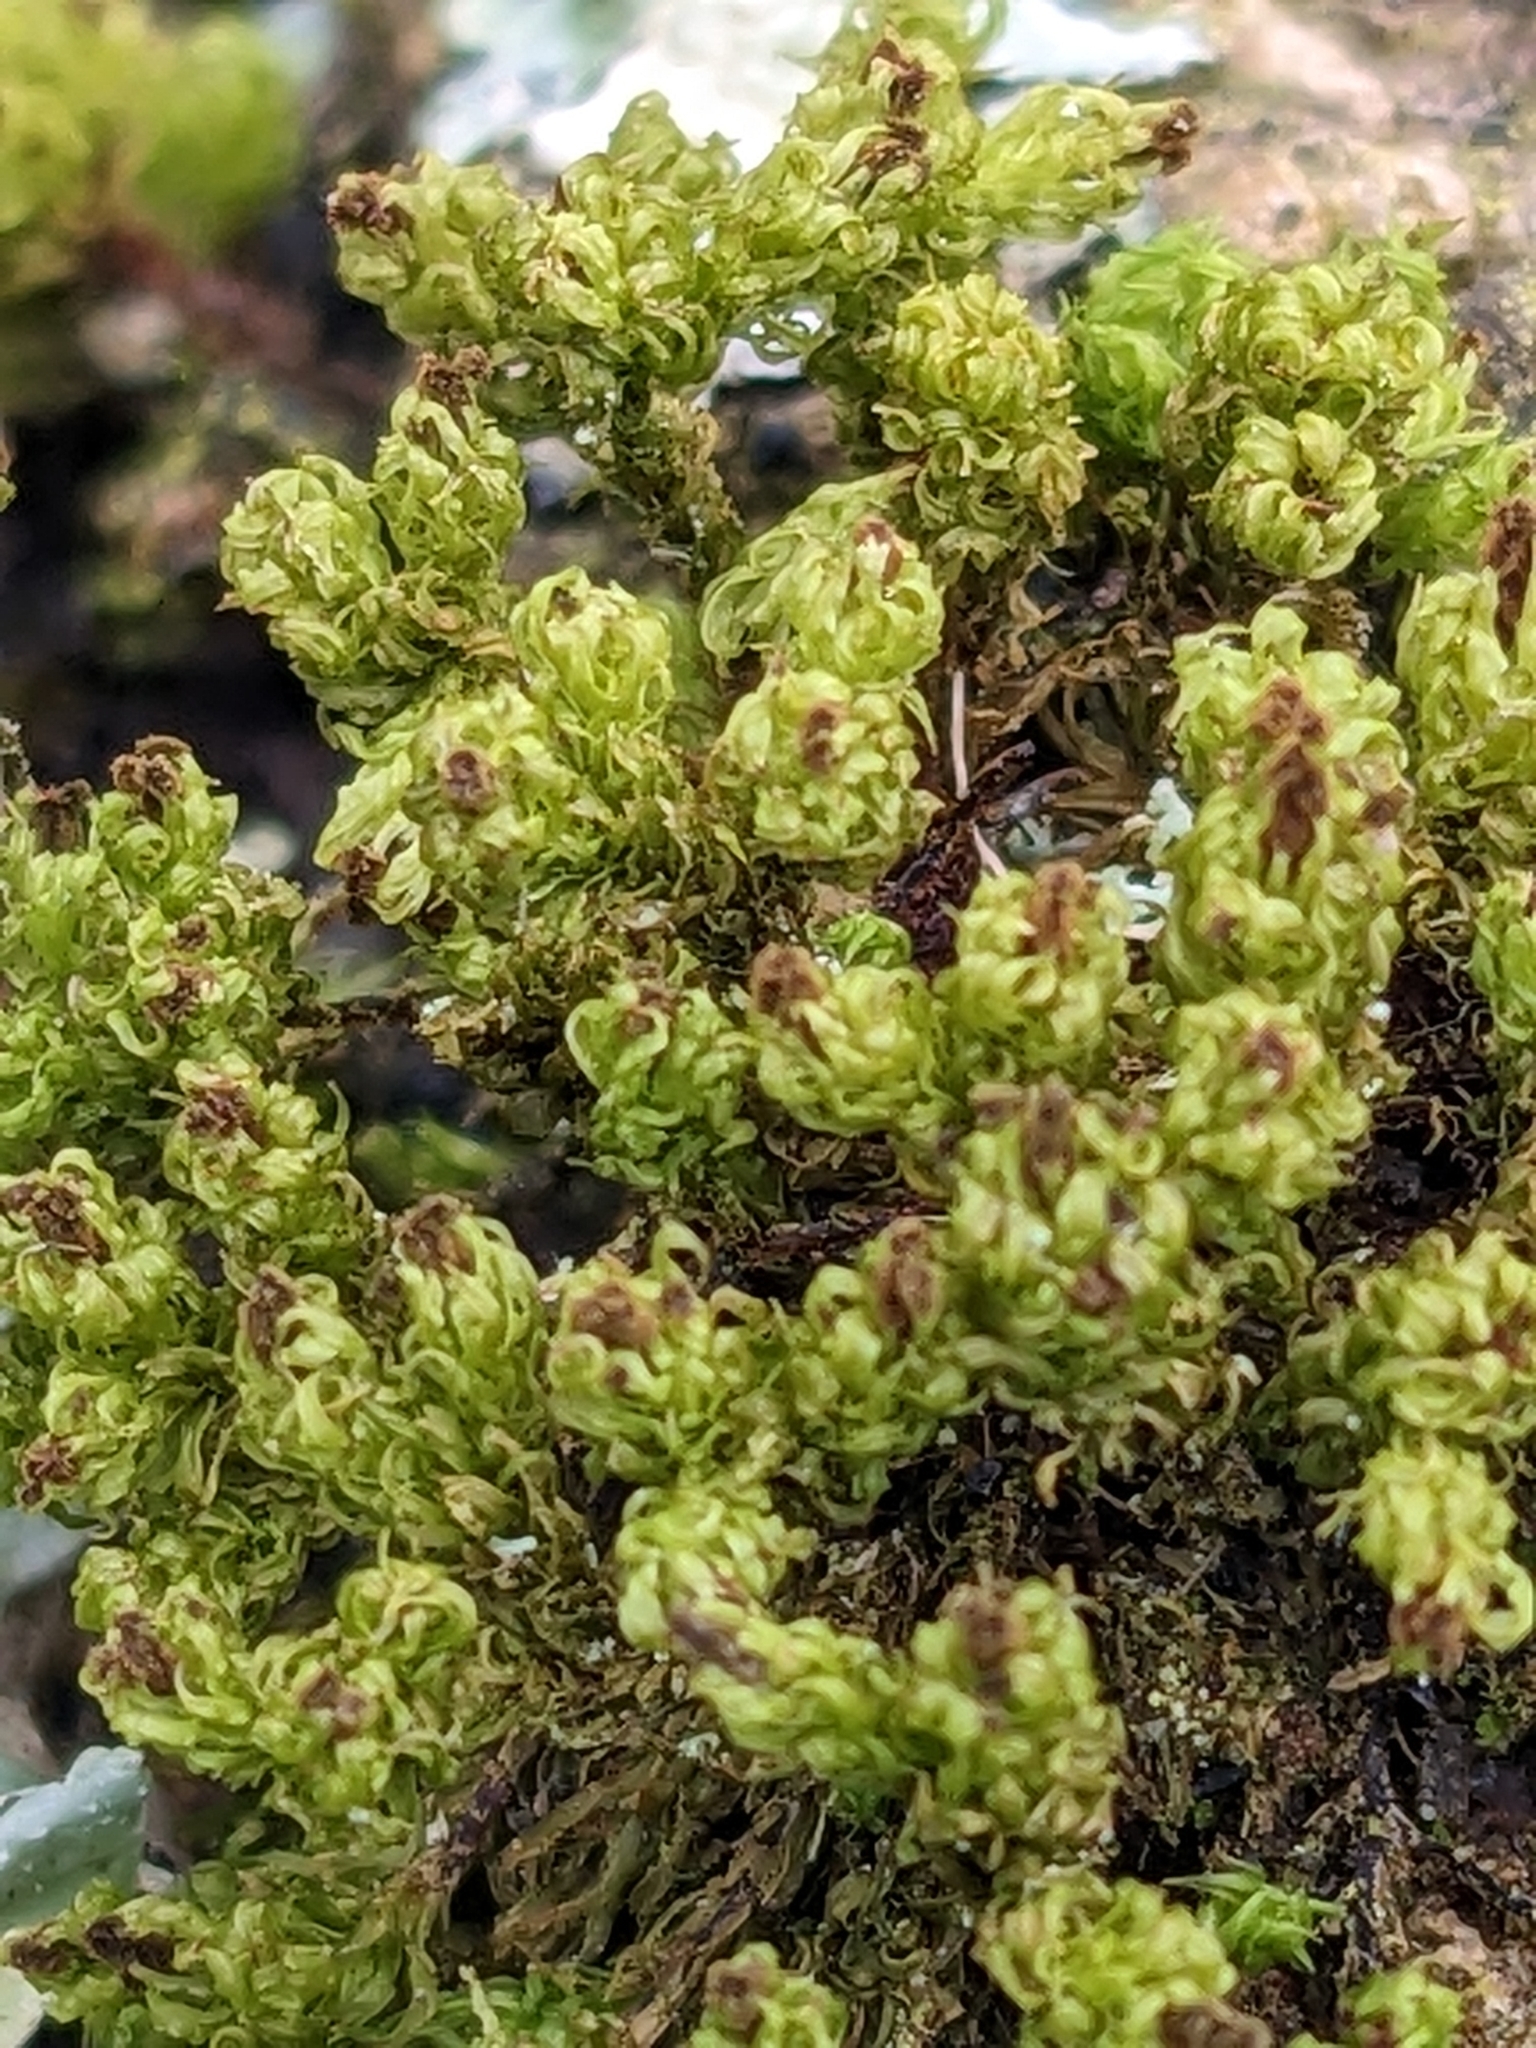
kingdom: Plantae
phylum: Bryophyta
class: Bryopsida
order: Orthotrichales
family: Orthotrichaceae
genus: Plenogemma
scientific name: Plenogemma phyllantha
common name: Frizzled pincushion
